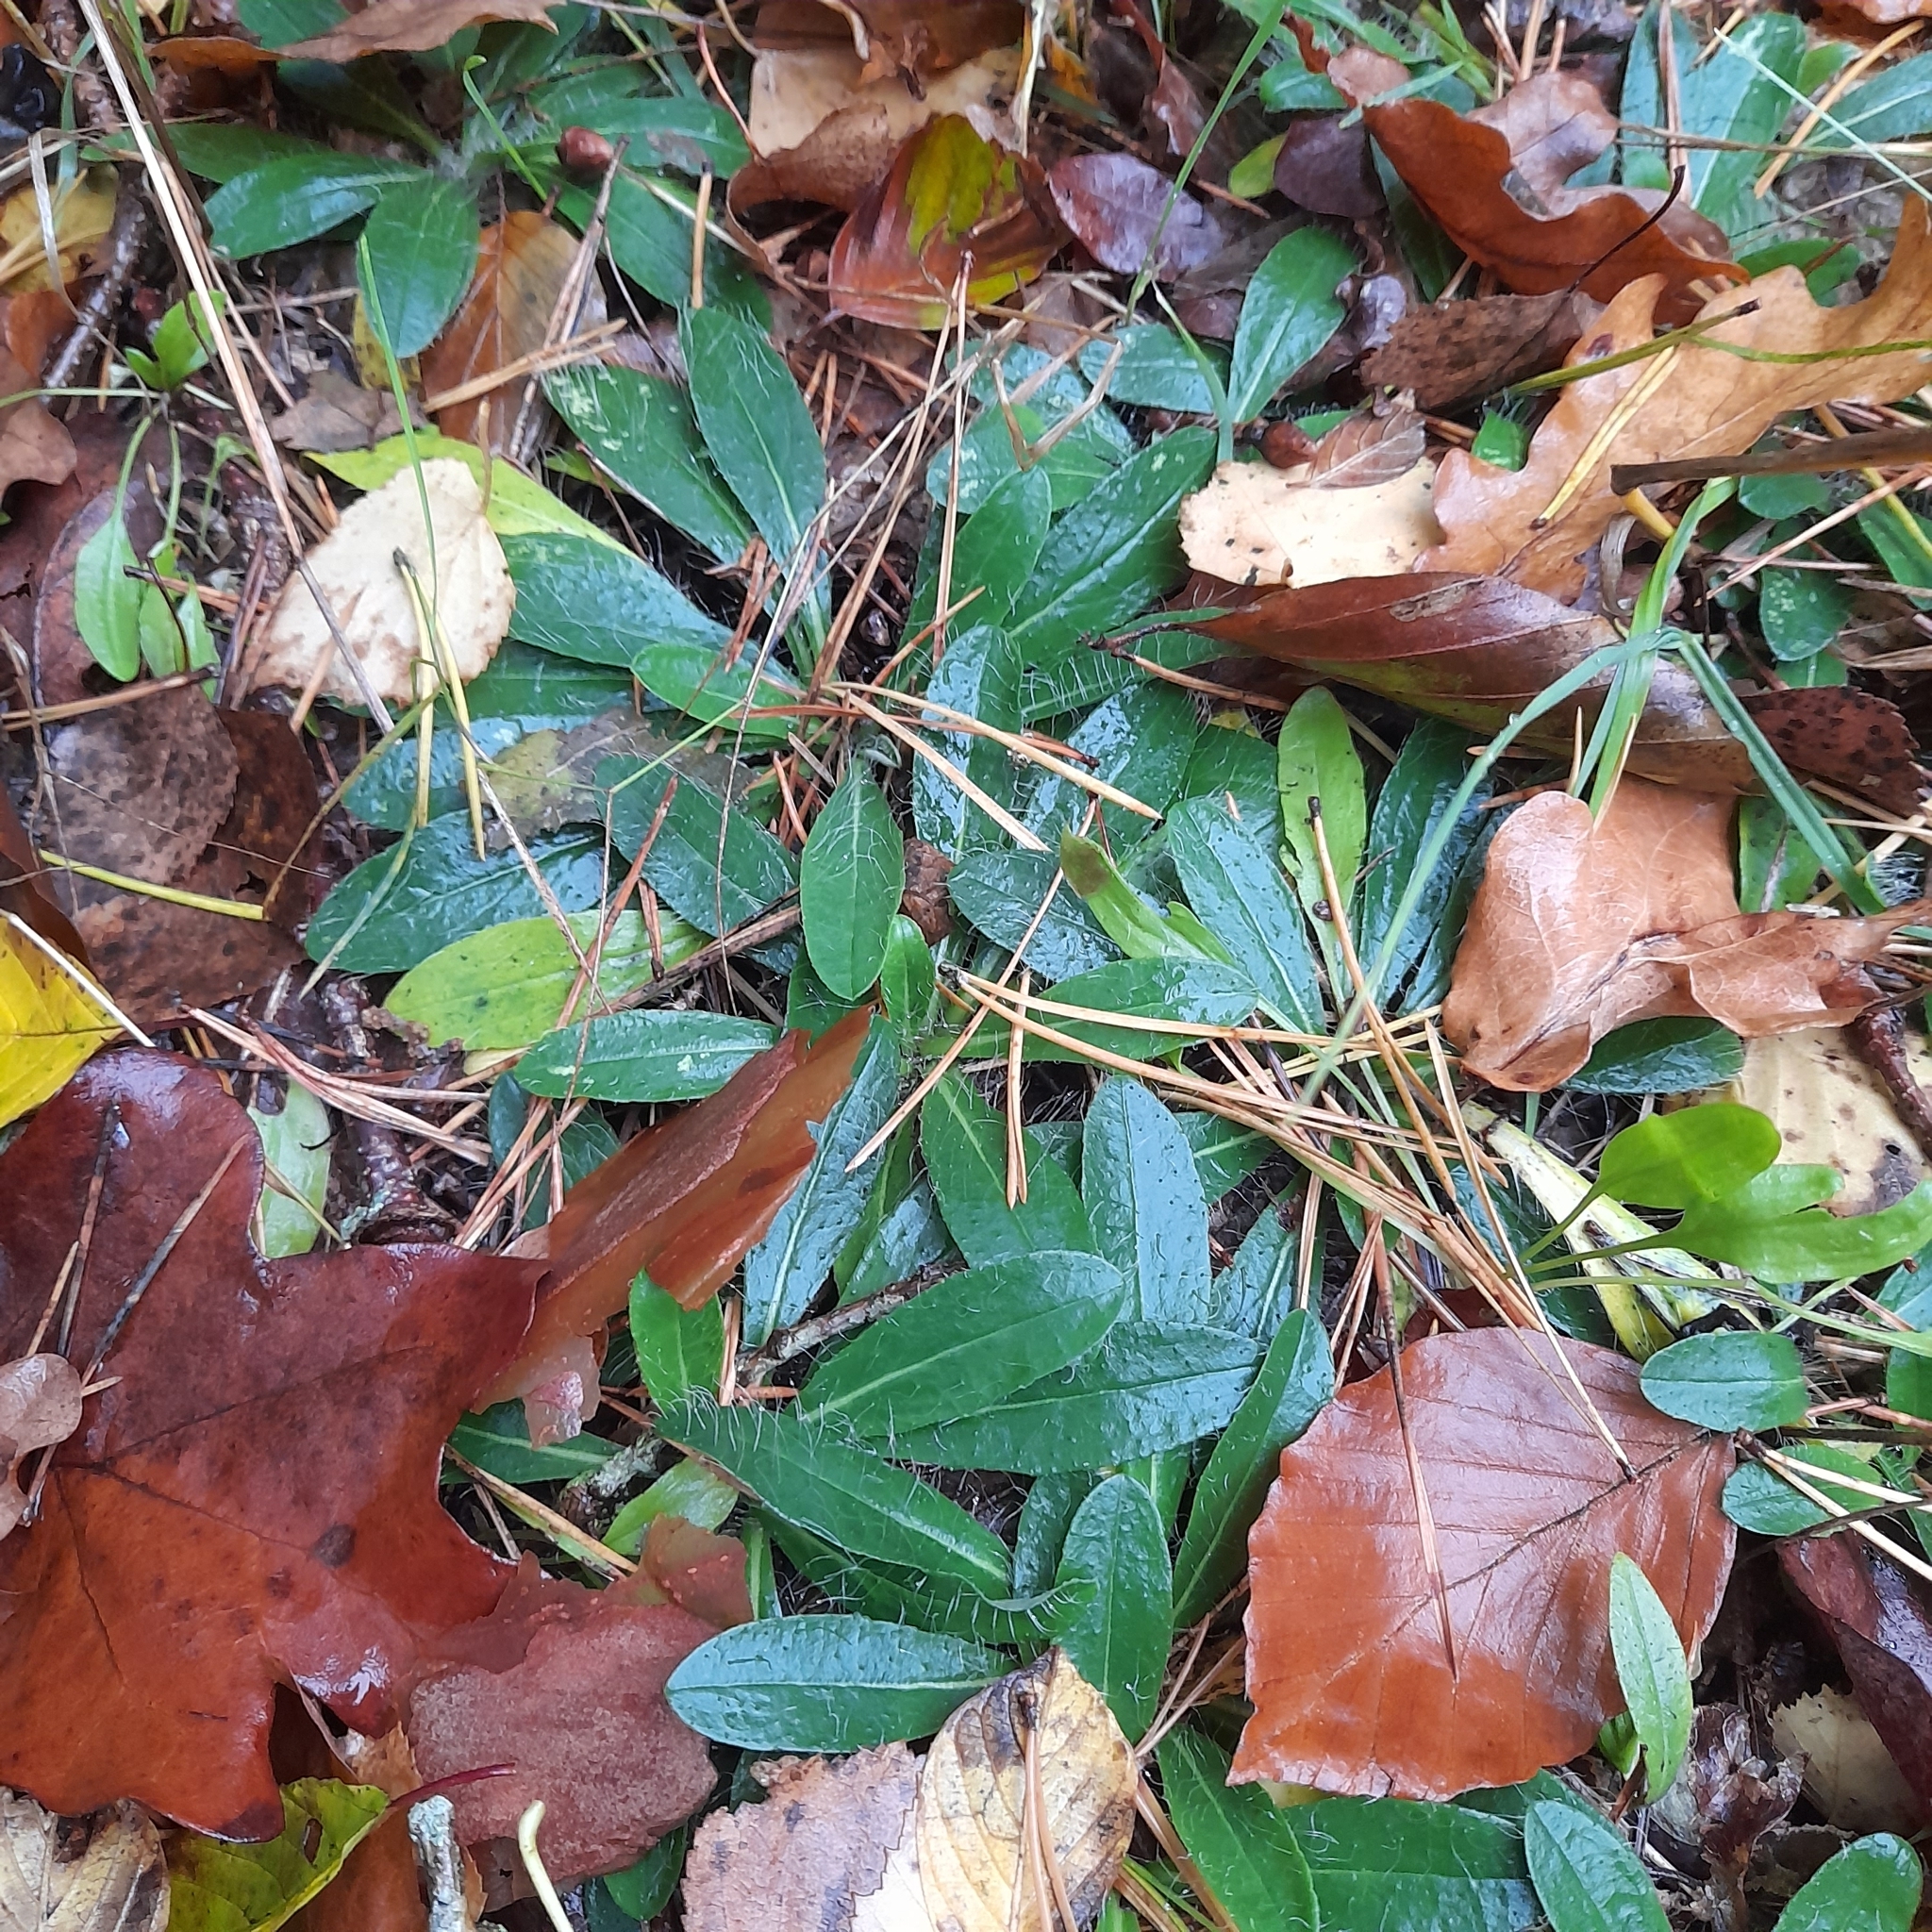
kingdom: Plantae
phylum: Tracheophyta
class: Magnoliopsida
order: Asterales
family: Asteraceae
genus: Pilosella
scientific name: Pilosella officinarum
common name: Mouse-ear hawkweed
